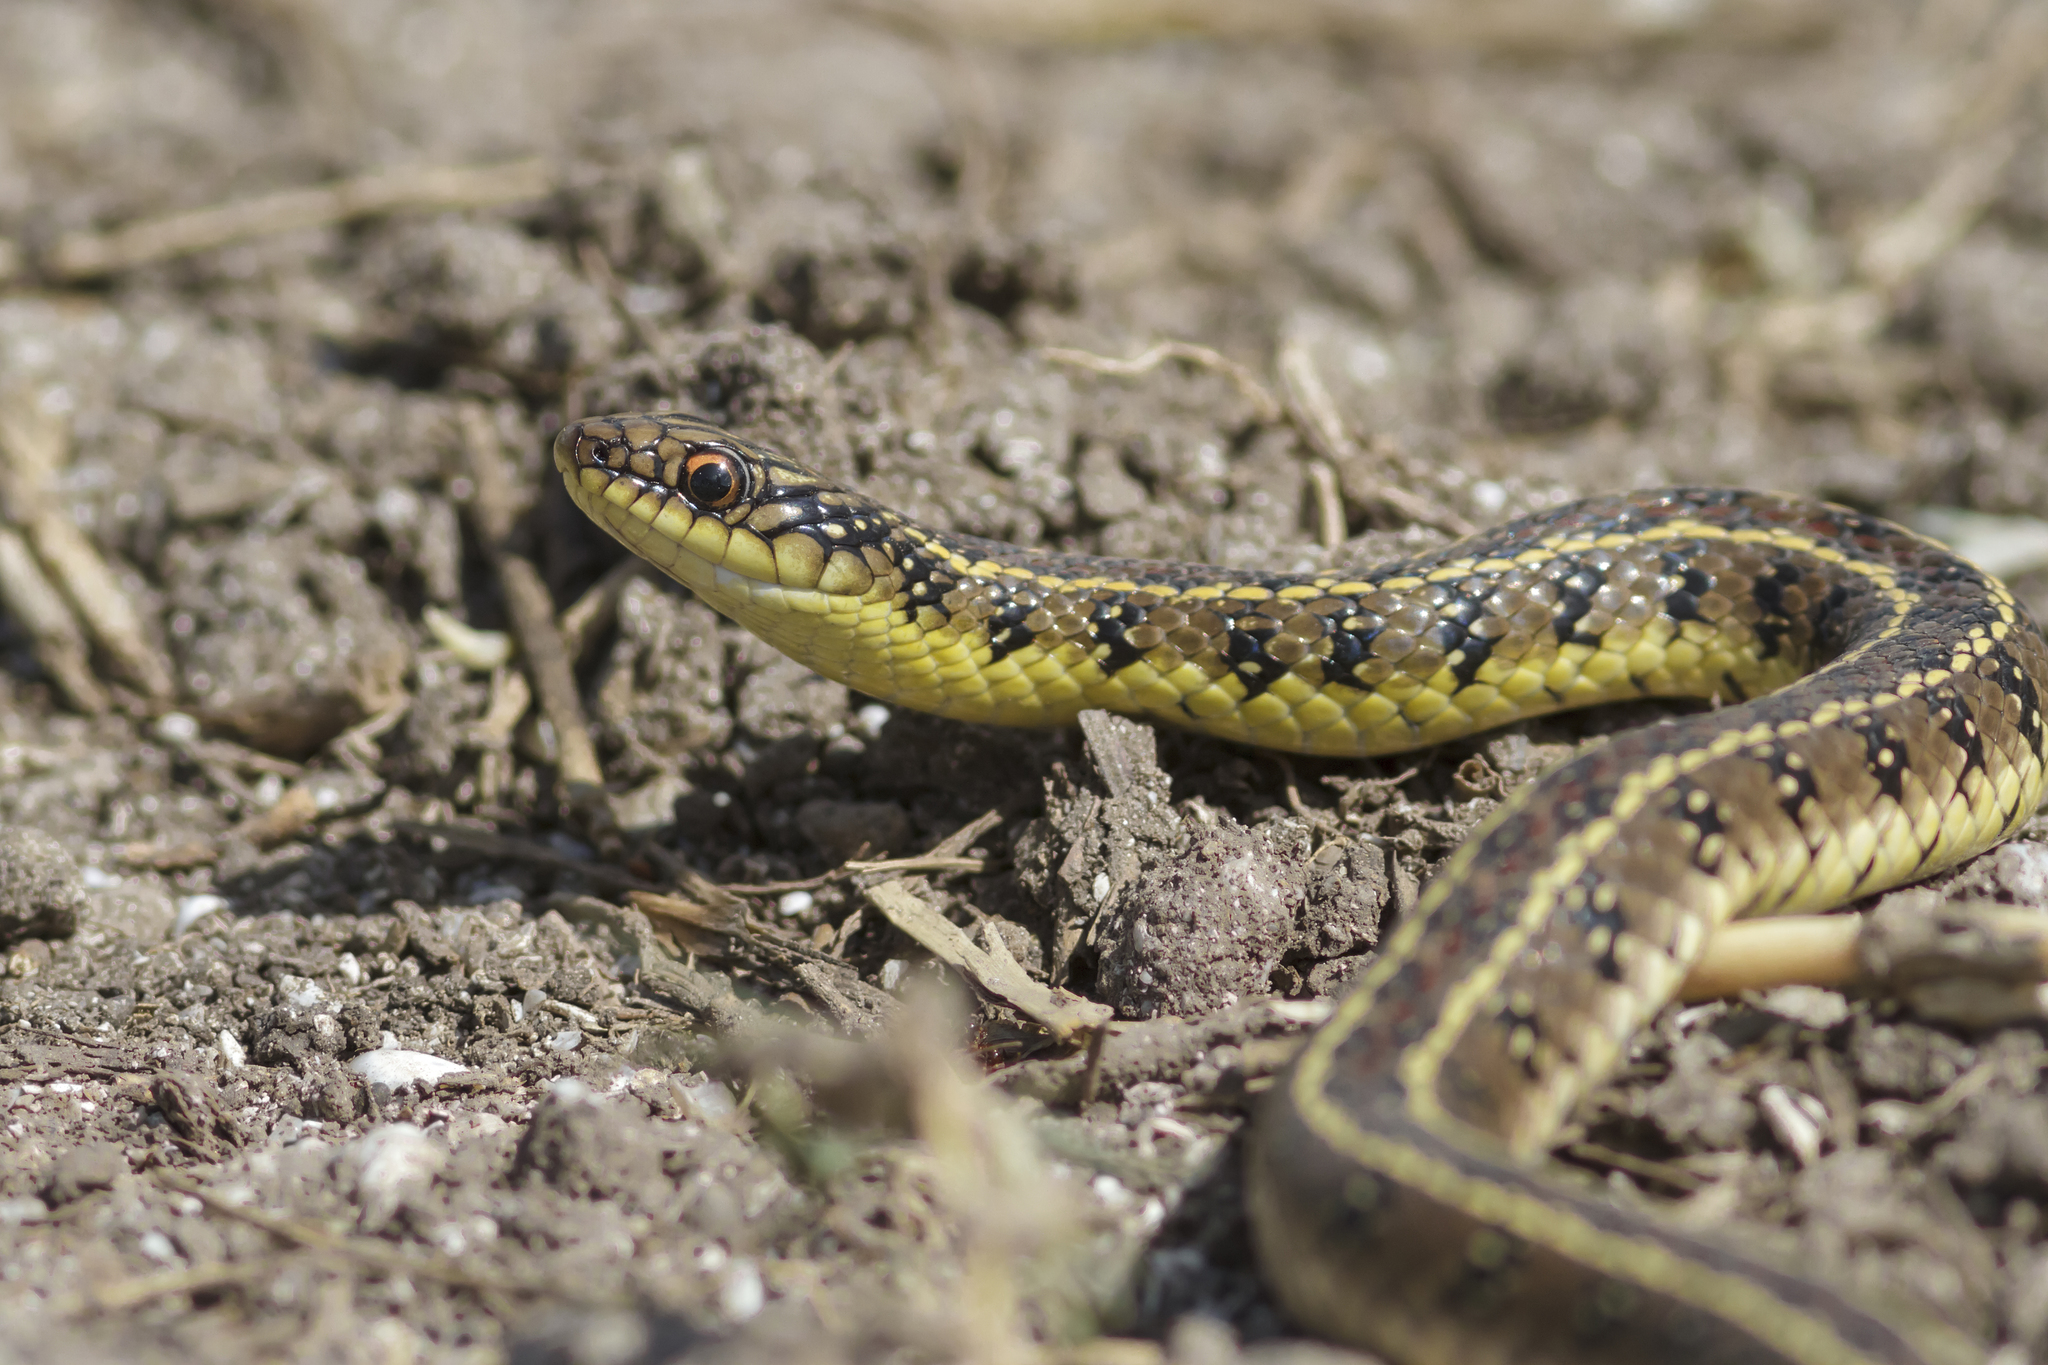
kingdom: Animalia
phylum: Chordata
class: Squamata
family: Colubridae
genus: Lygophis
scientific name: Lygophis anomalus
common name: English common name not available
